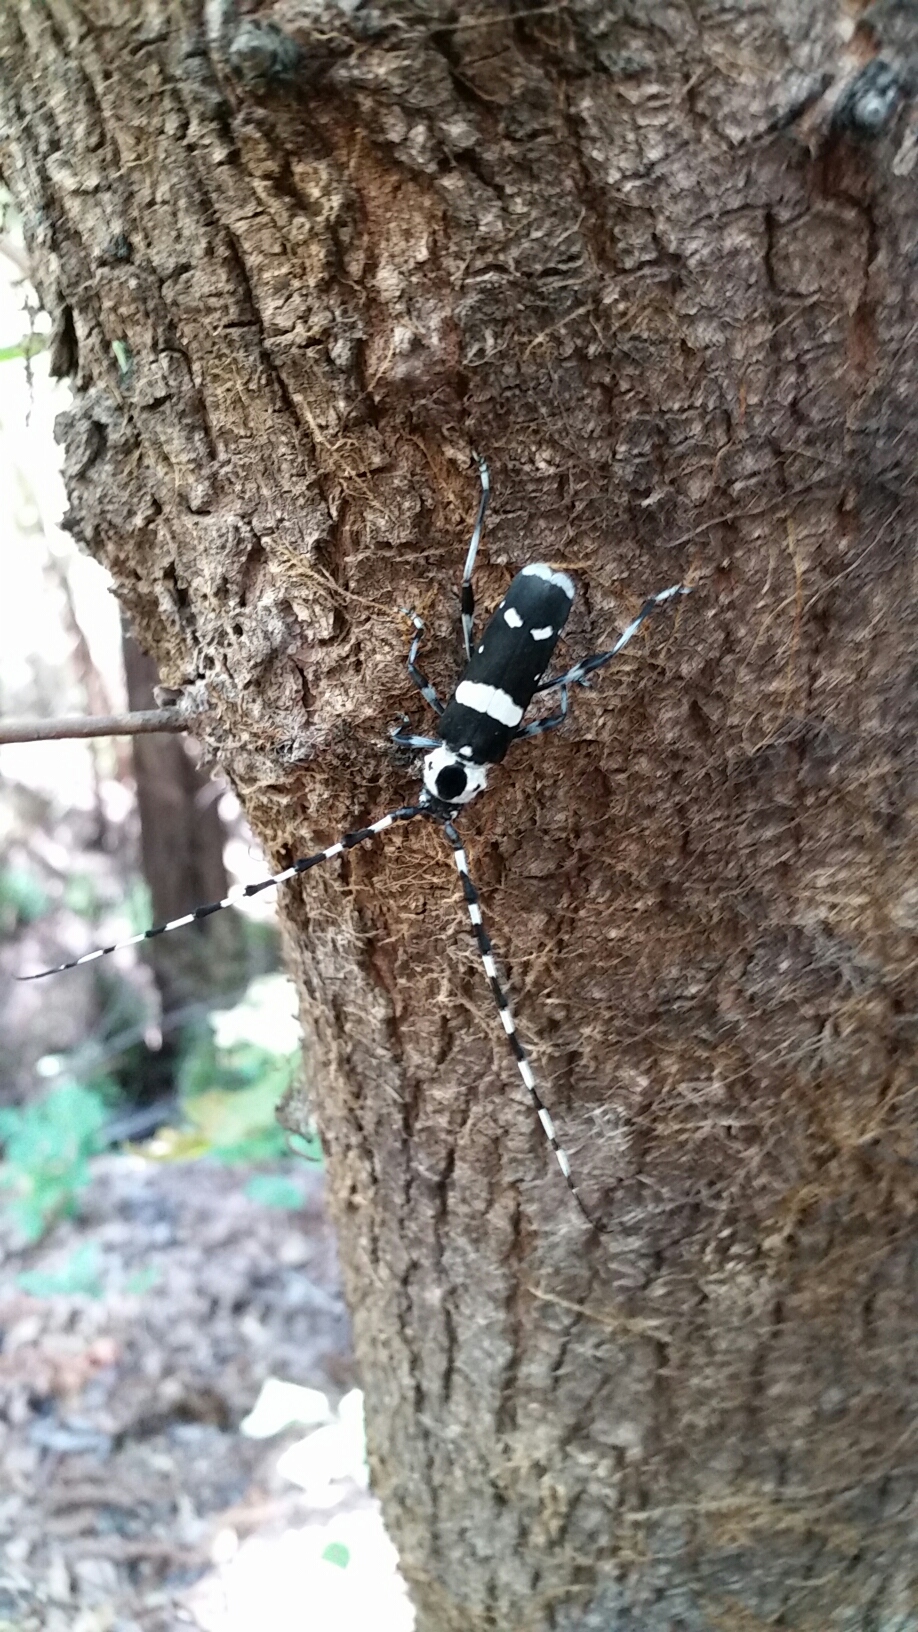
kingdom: Animalia
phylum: Arthropoda
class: Insecta
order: Coleoptera
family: Cerambycidae
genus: Rosalia
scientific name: Rosalia funebris
